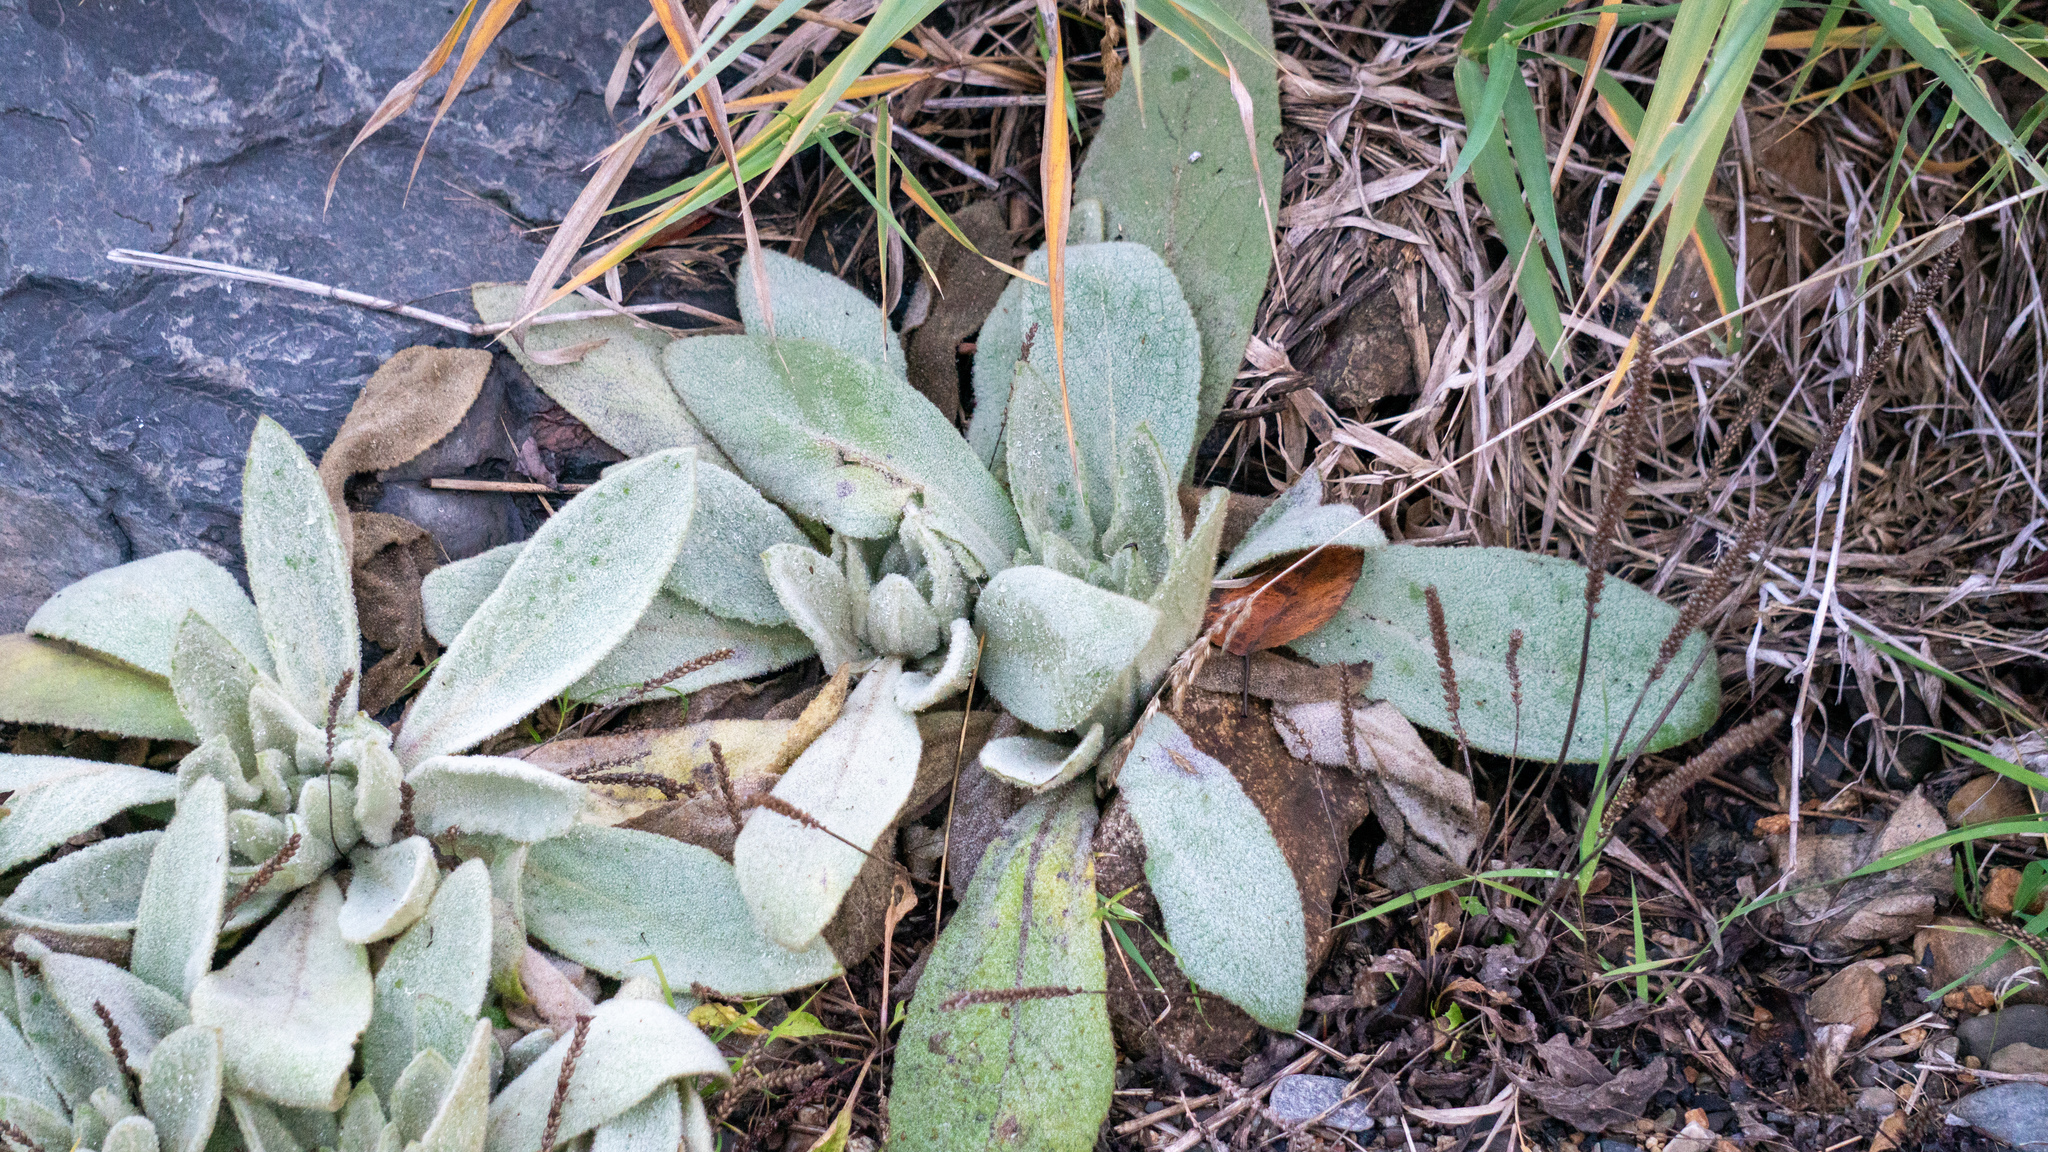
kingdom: Plantae
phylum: Tracheophyta
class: Magnoliopsida
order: Lamiales
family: Scrophulariaceae
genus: Verbascum
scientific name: Verbascum thapsus
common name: Common mullein
